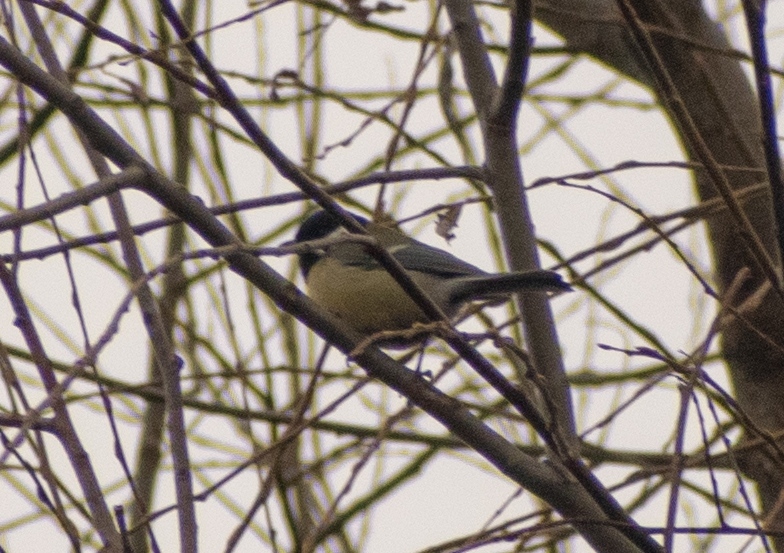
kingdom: Animalia
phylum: Chordata
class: Aves
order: Passeriformes
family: Paridae
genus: Parus
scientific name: Parus major
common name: Great tit
